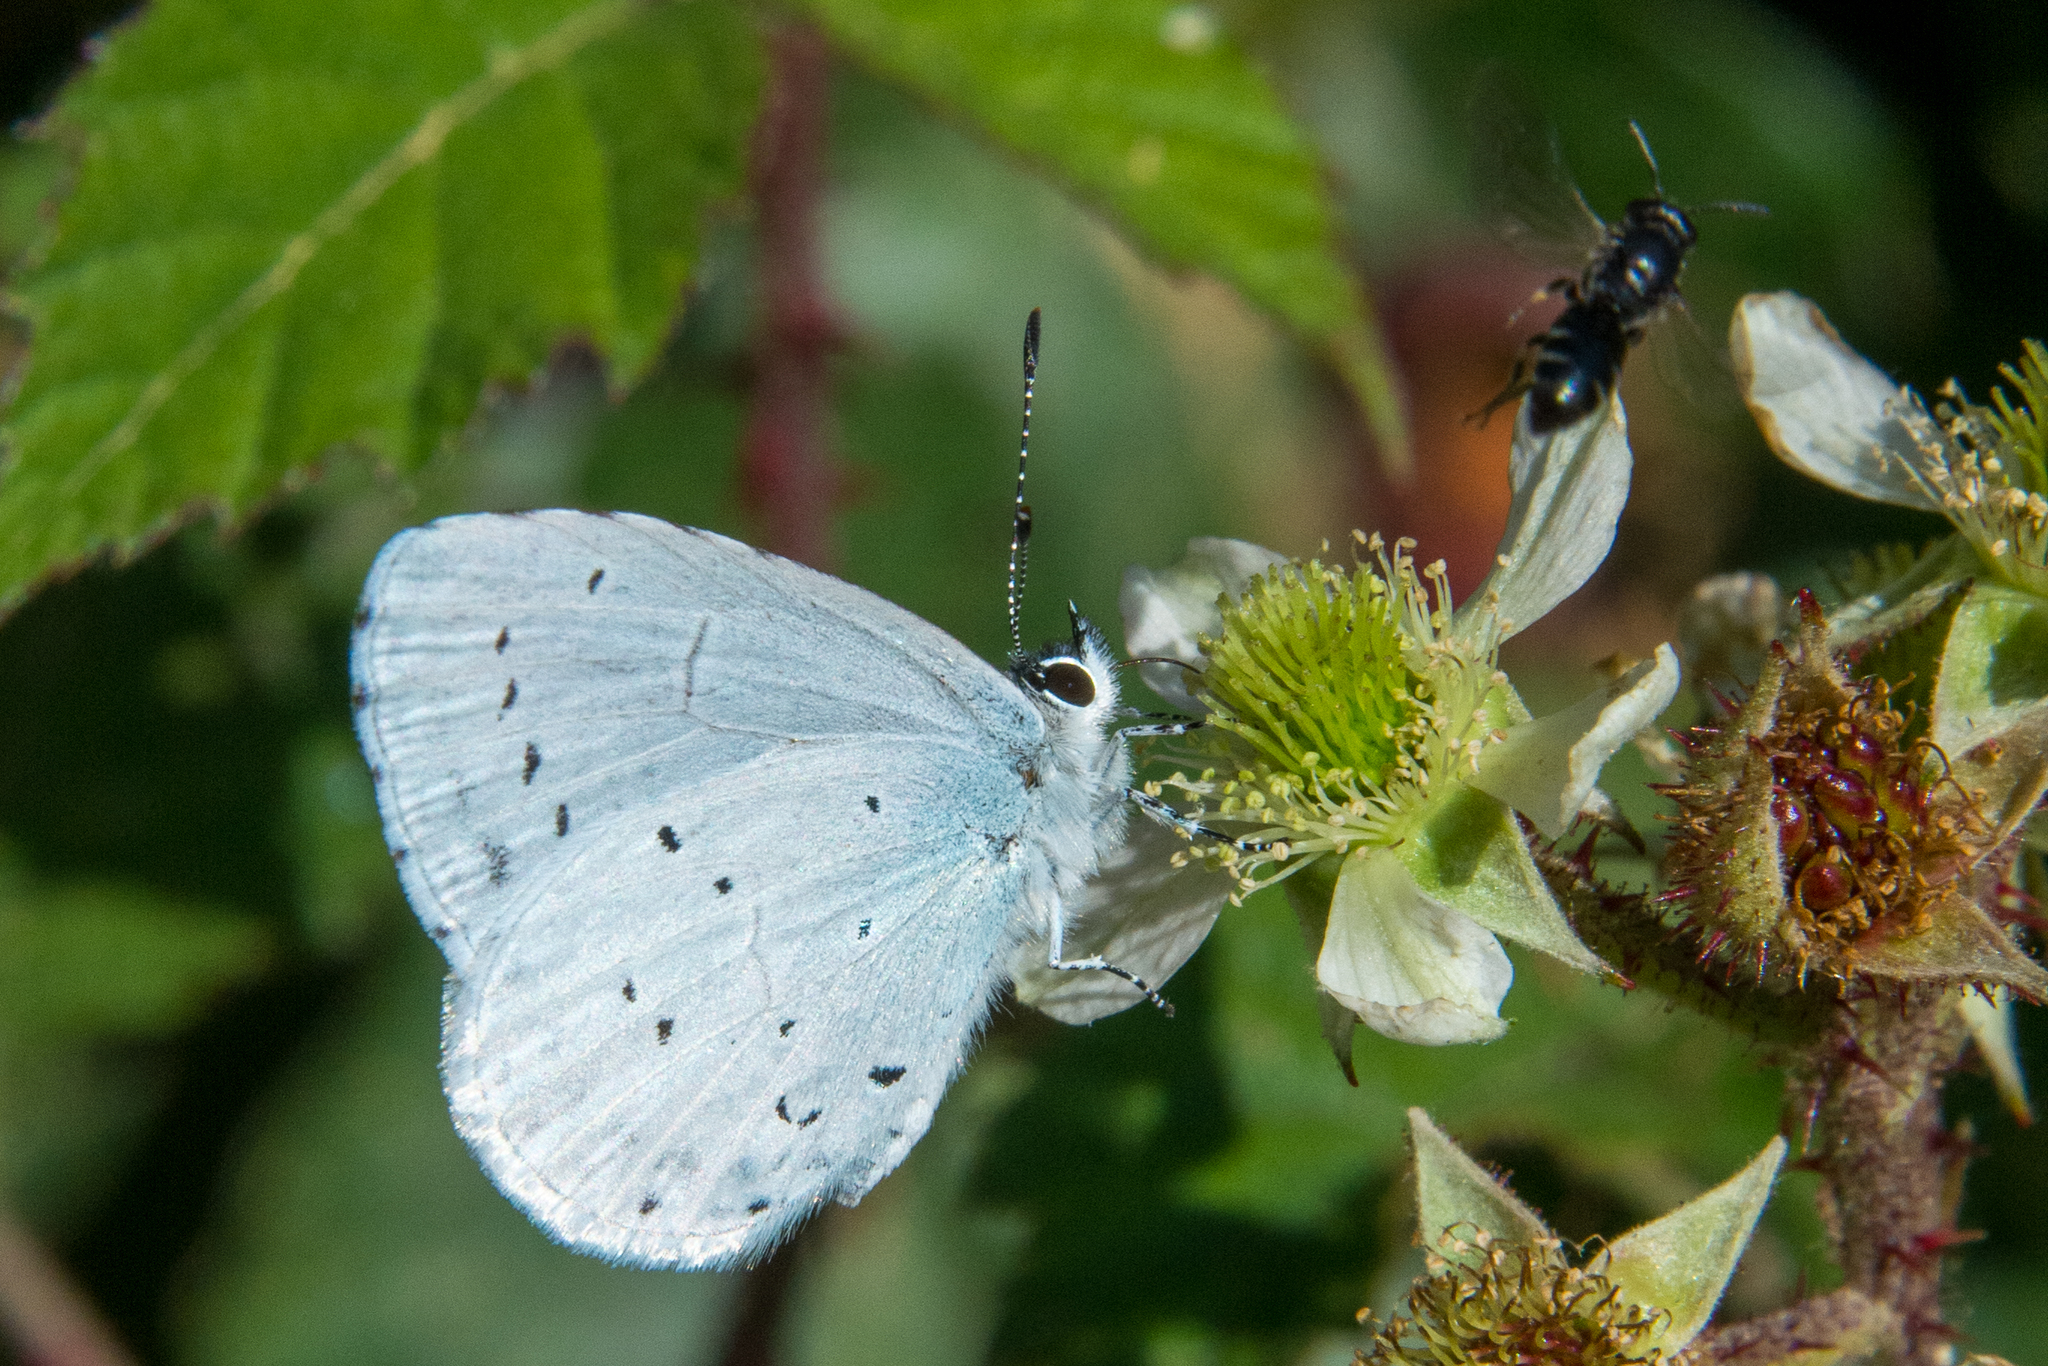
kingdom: Animalia
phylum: Arthropoda
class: Insecta
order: Lepidoptera
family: Lycaenidae
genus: Celastrina
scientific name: Celastrina argiolus
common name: Holly blue
